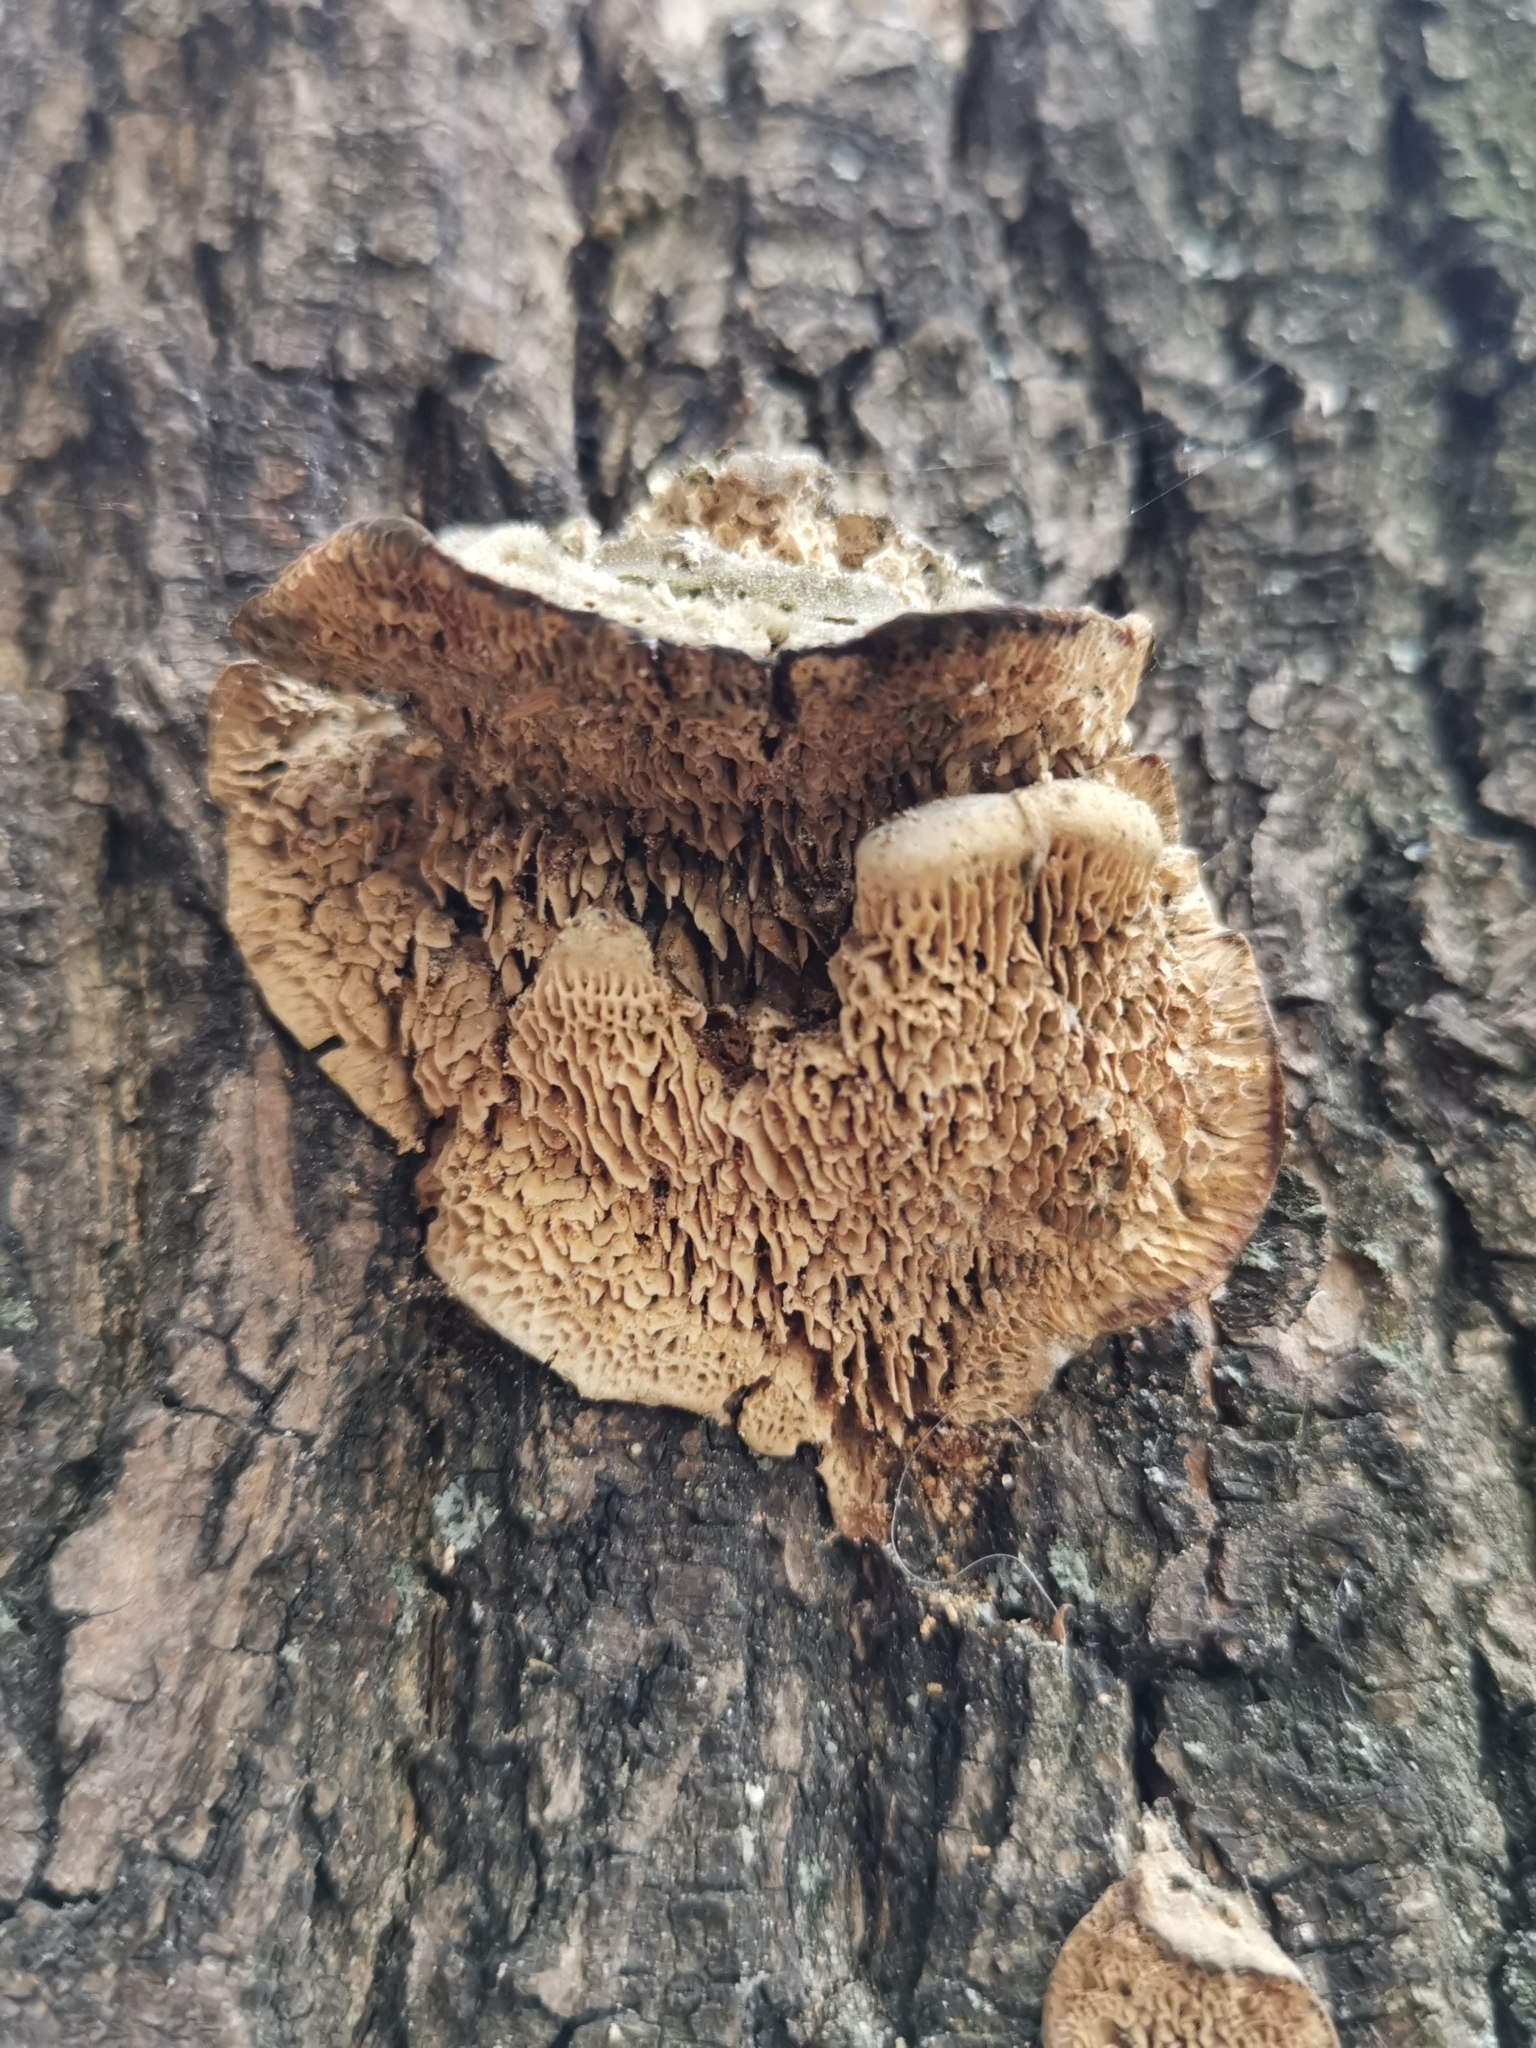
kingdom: Fungi
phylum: Basidiomycota
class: Agaricomycetes
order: Polyporales
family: Fomitopsidaceae
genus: Fomitopsis
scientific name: Fomitopsis
